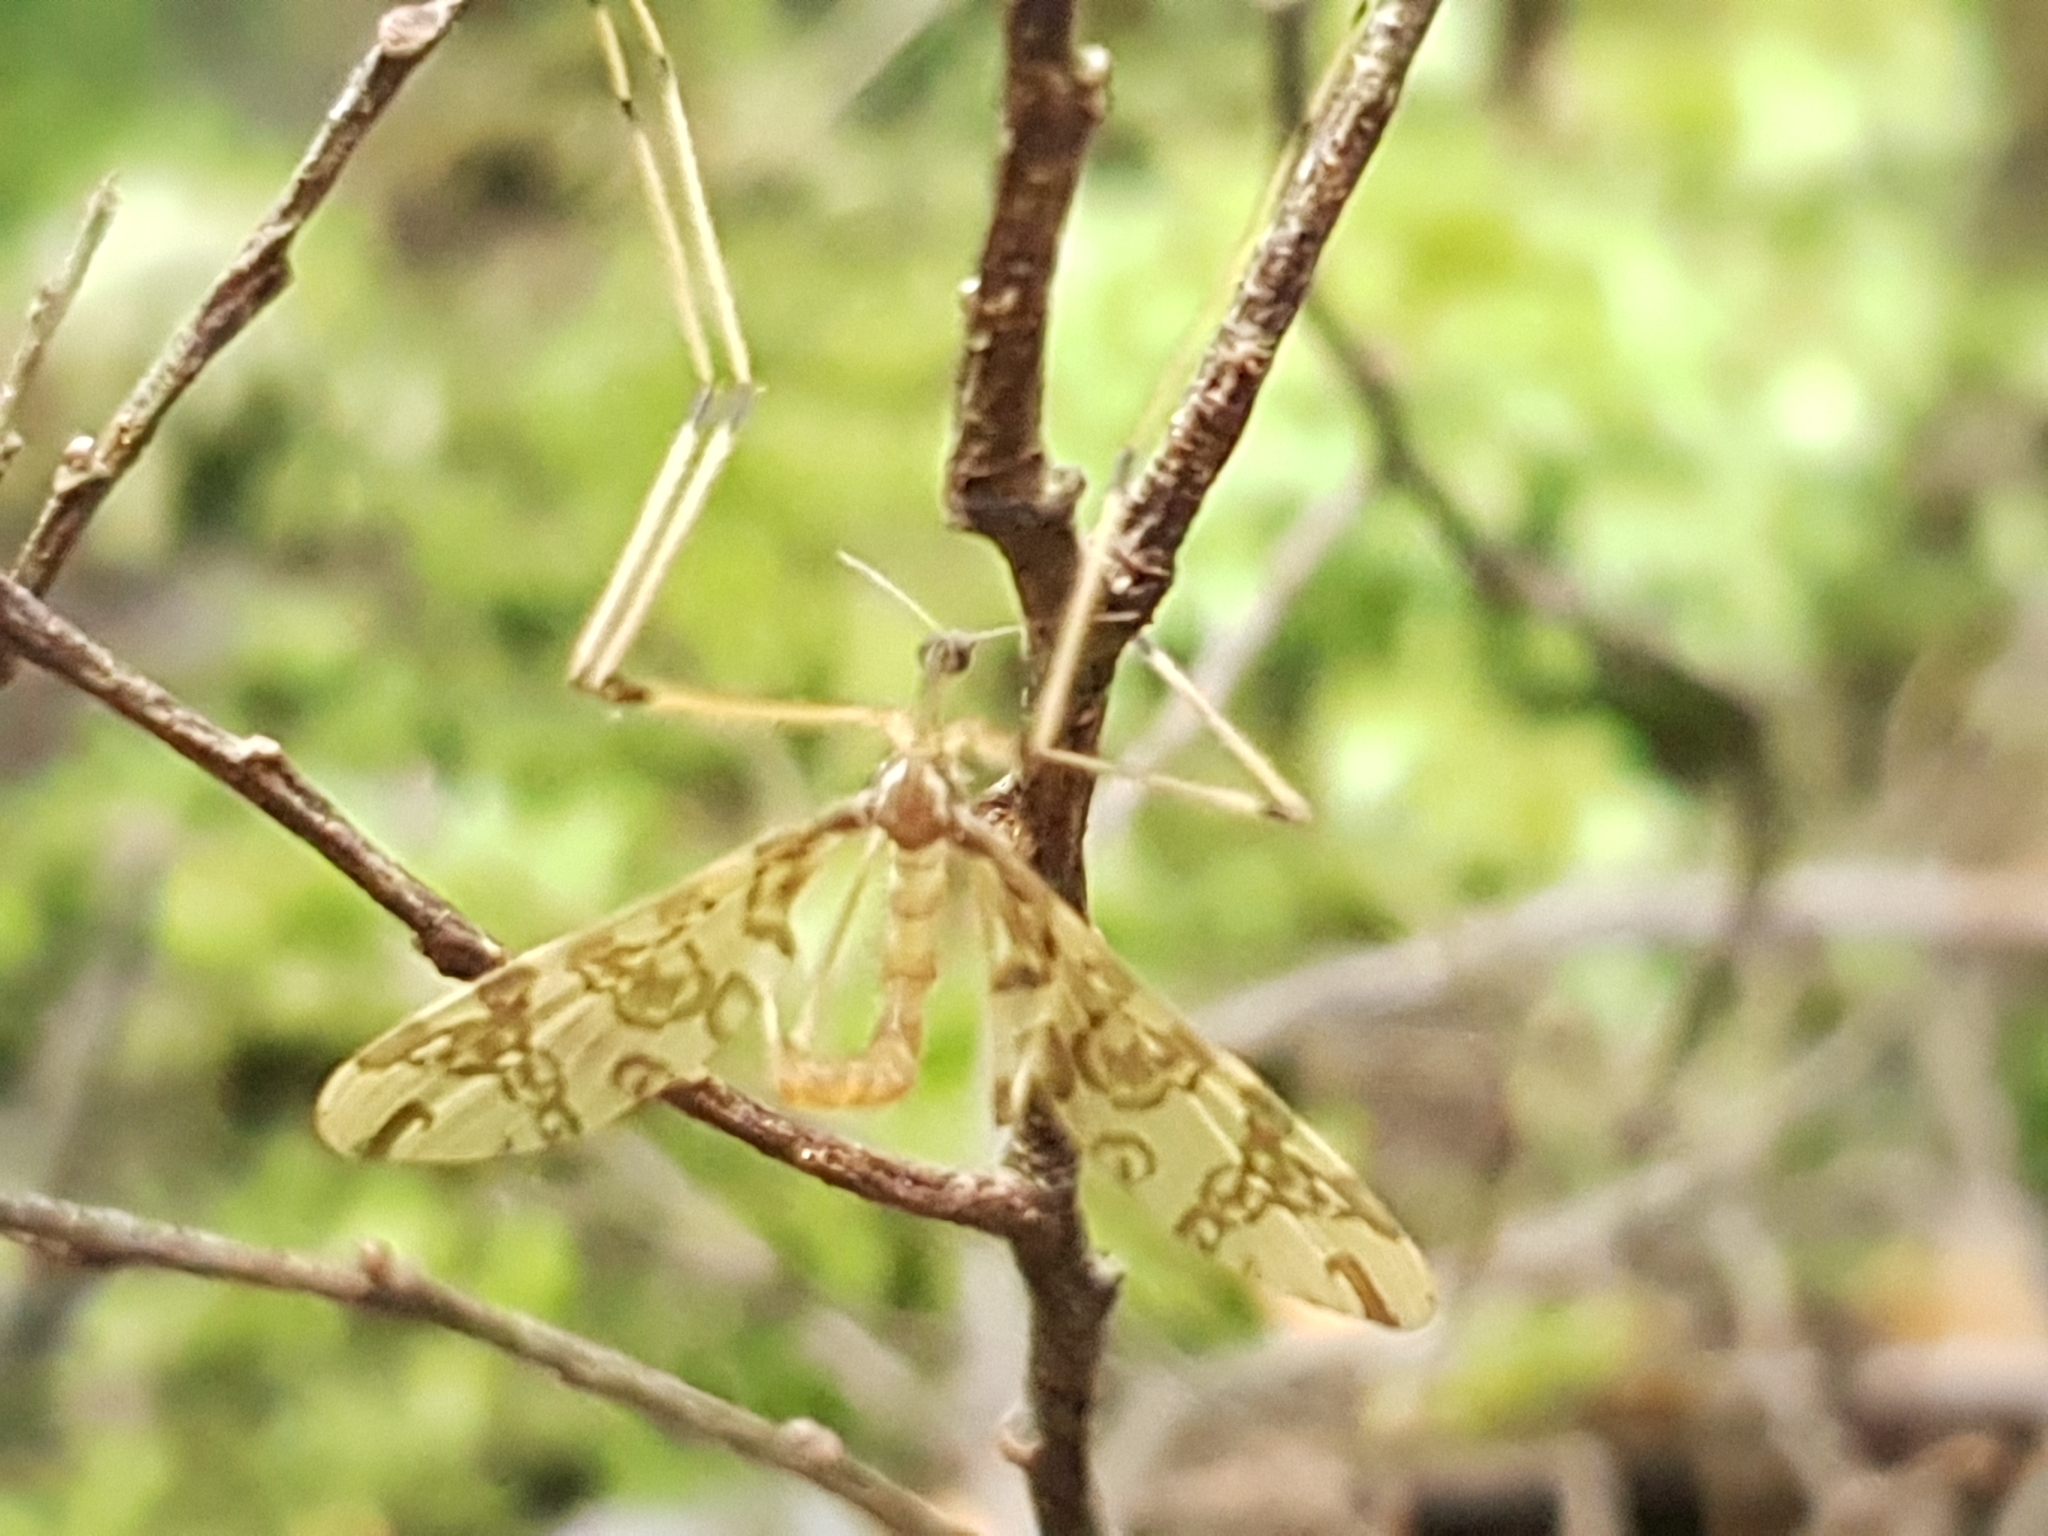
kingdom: Animalia
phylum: Arthropoda
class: Insecta
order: Diptera
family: Tanyderidae
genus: Tanyderus
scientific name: Tanyderus annuliferus
